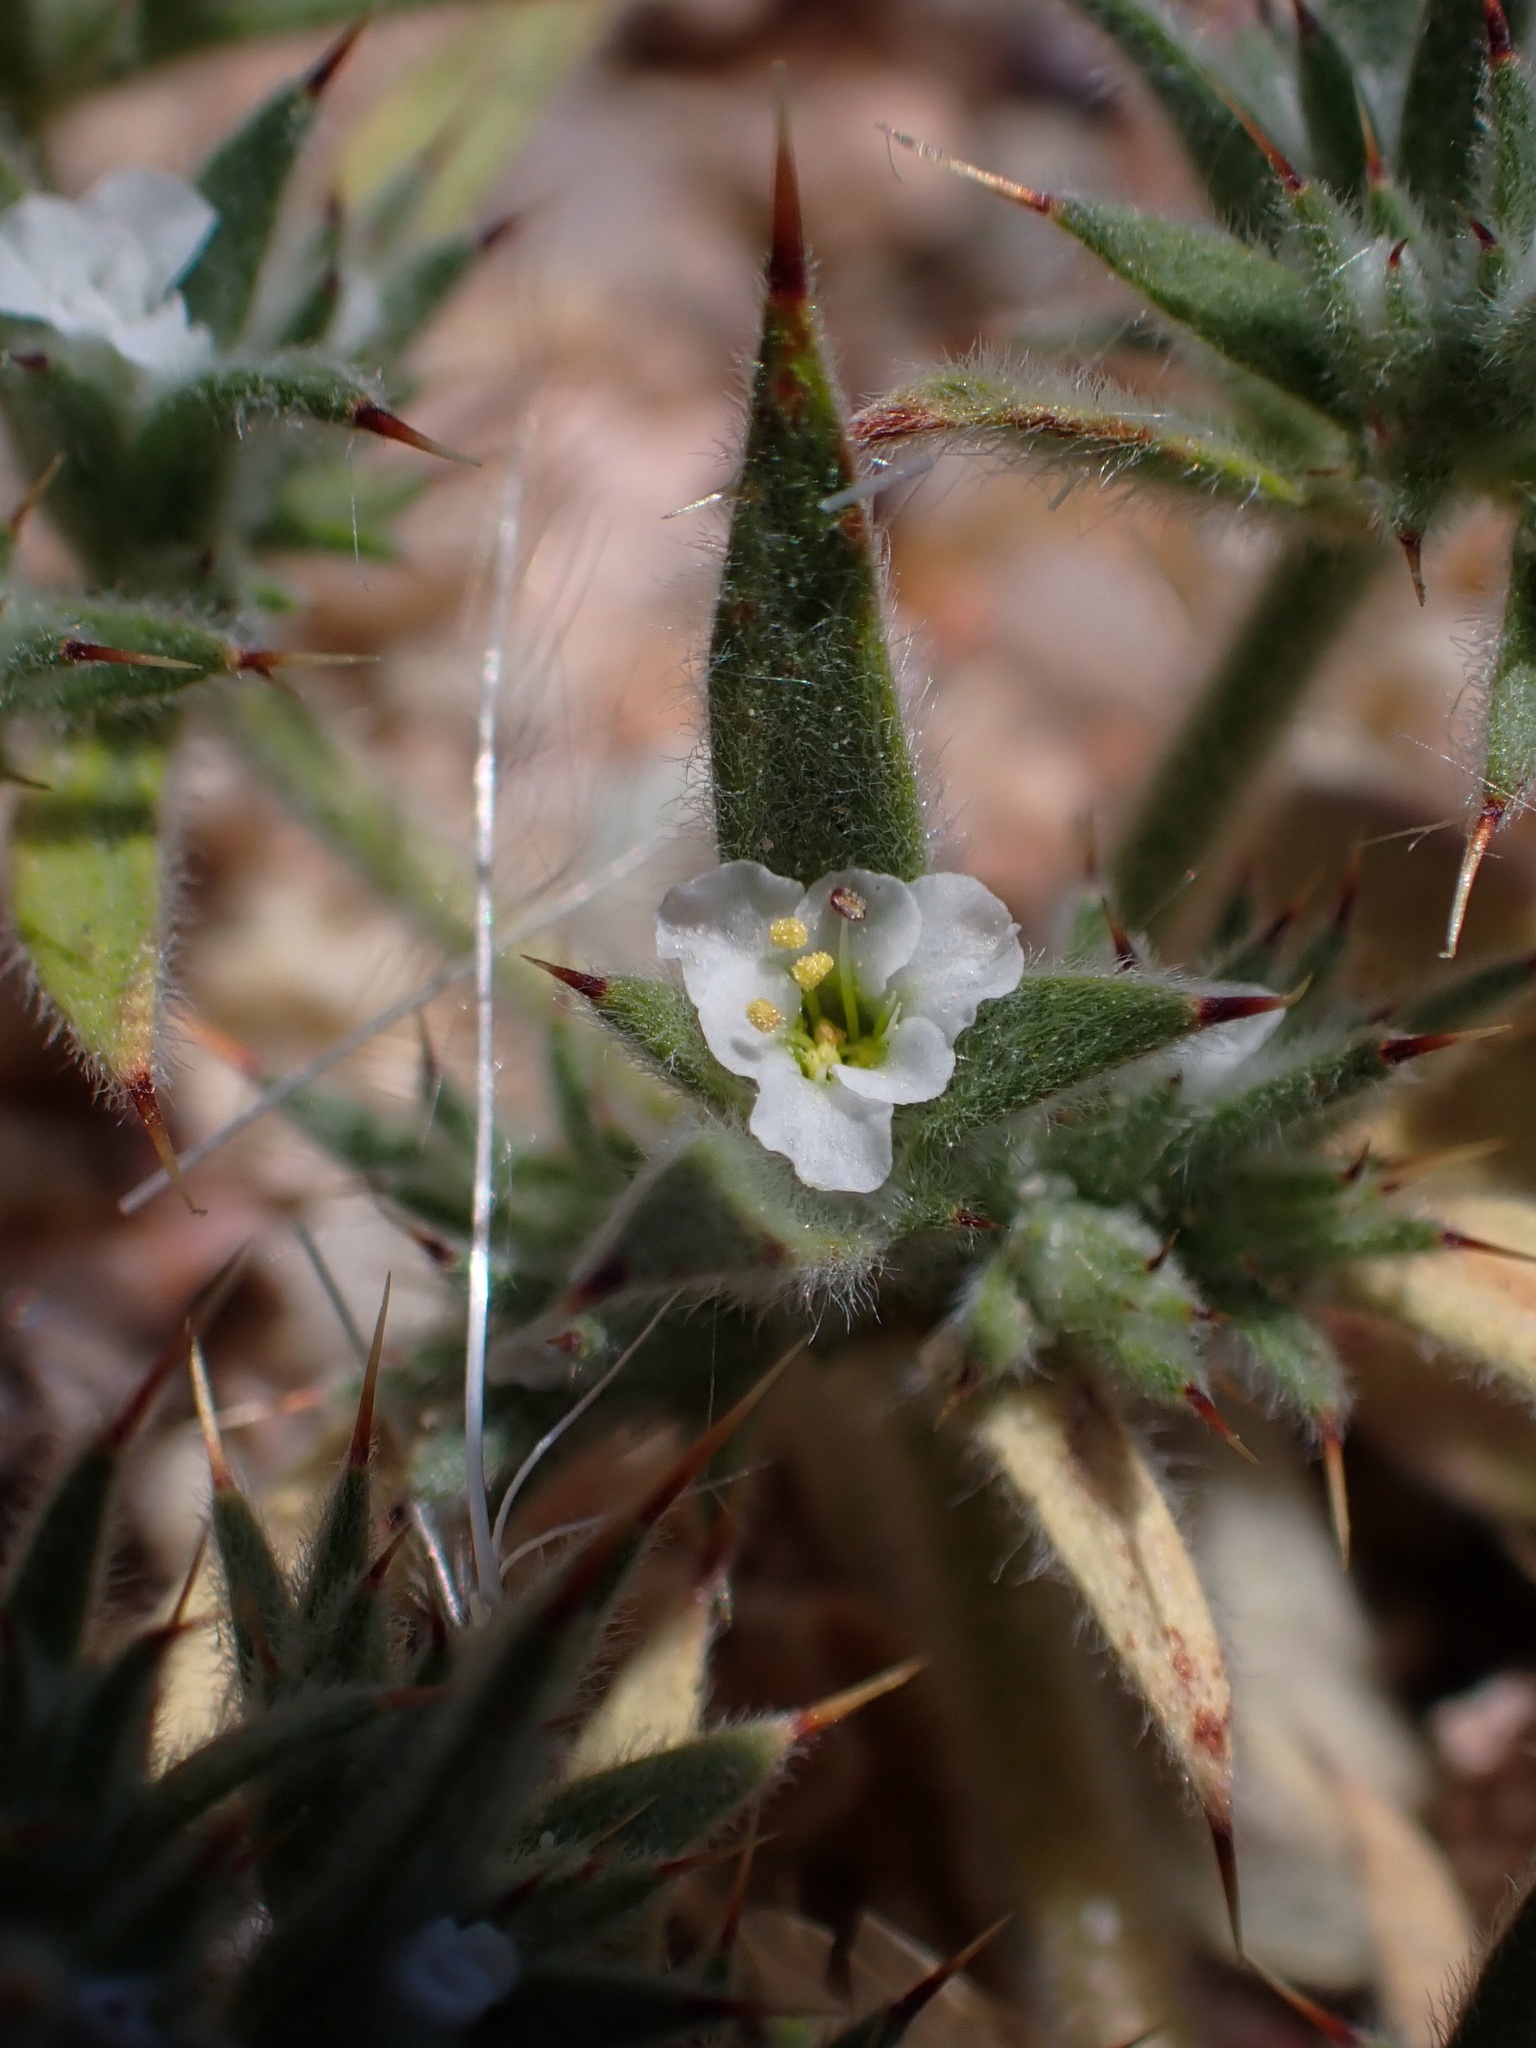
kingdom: Plantae
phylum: Tracheophyta
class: Magnoliopsida
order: Caryophyllales
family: Polygonaceae
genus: Chorizanthe
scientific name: Chorizanthe spinosa
